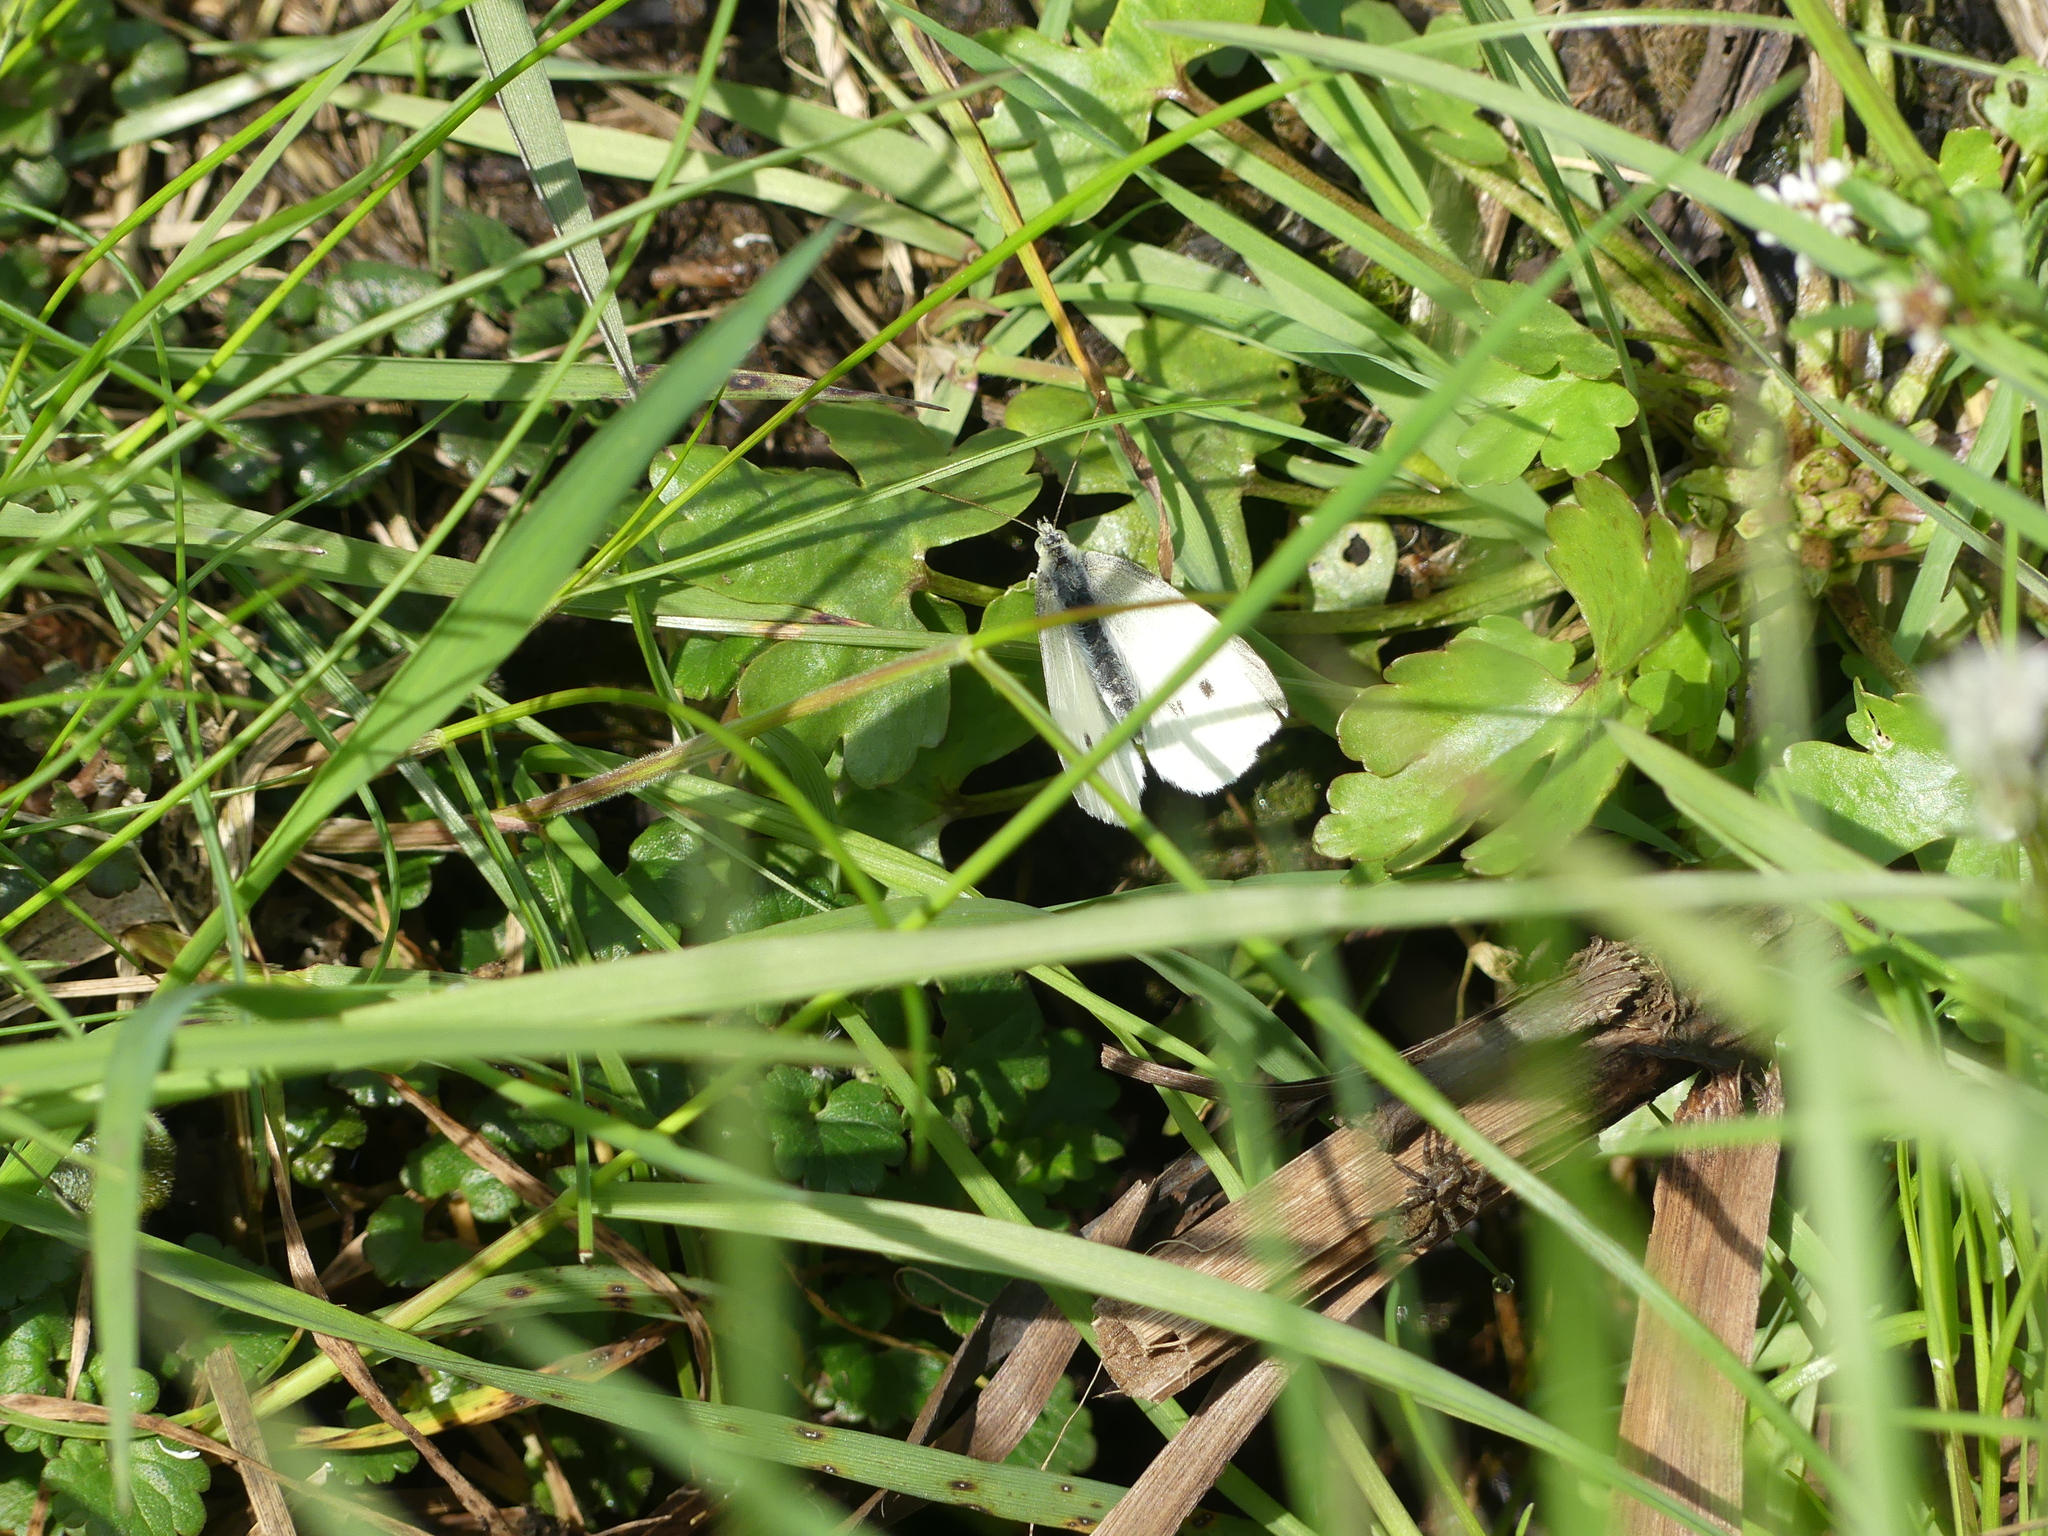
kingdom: Animalia
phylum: Arthropoda
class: Insecta
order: Lepidoptera
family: Pieridae
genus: Pieris
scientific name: Pieris rapae
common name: Small white
